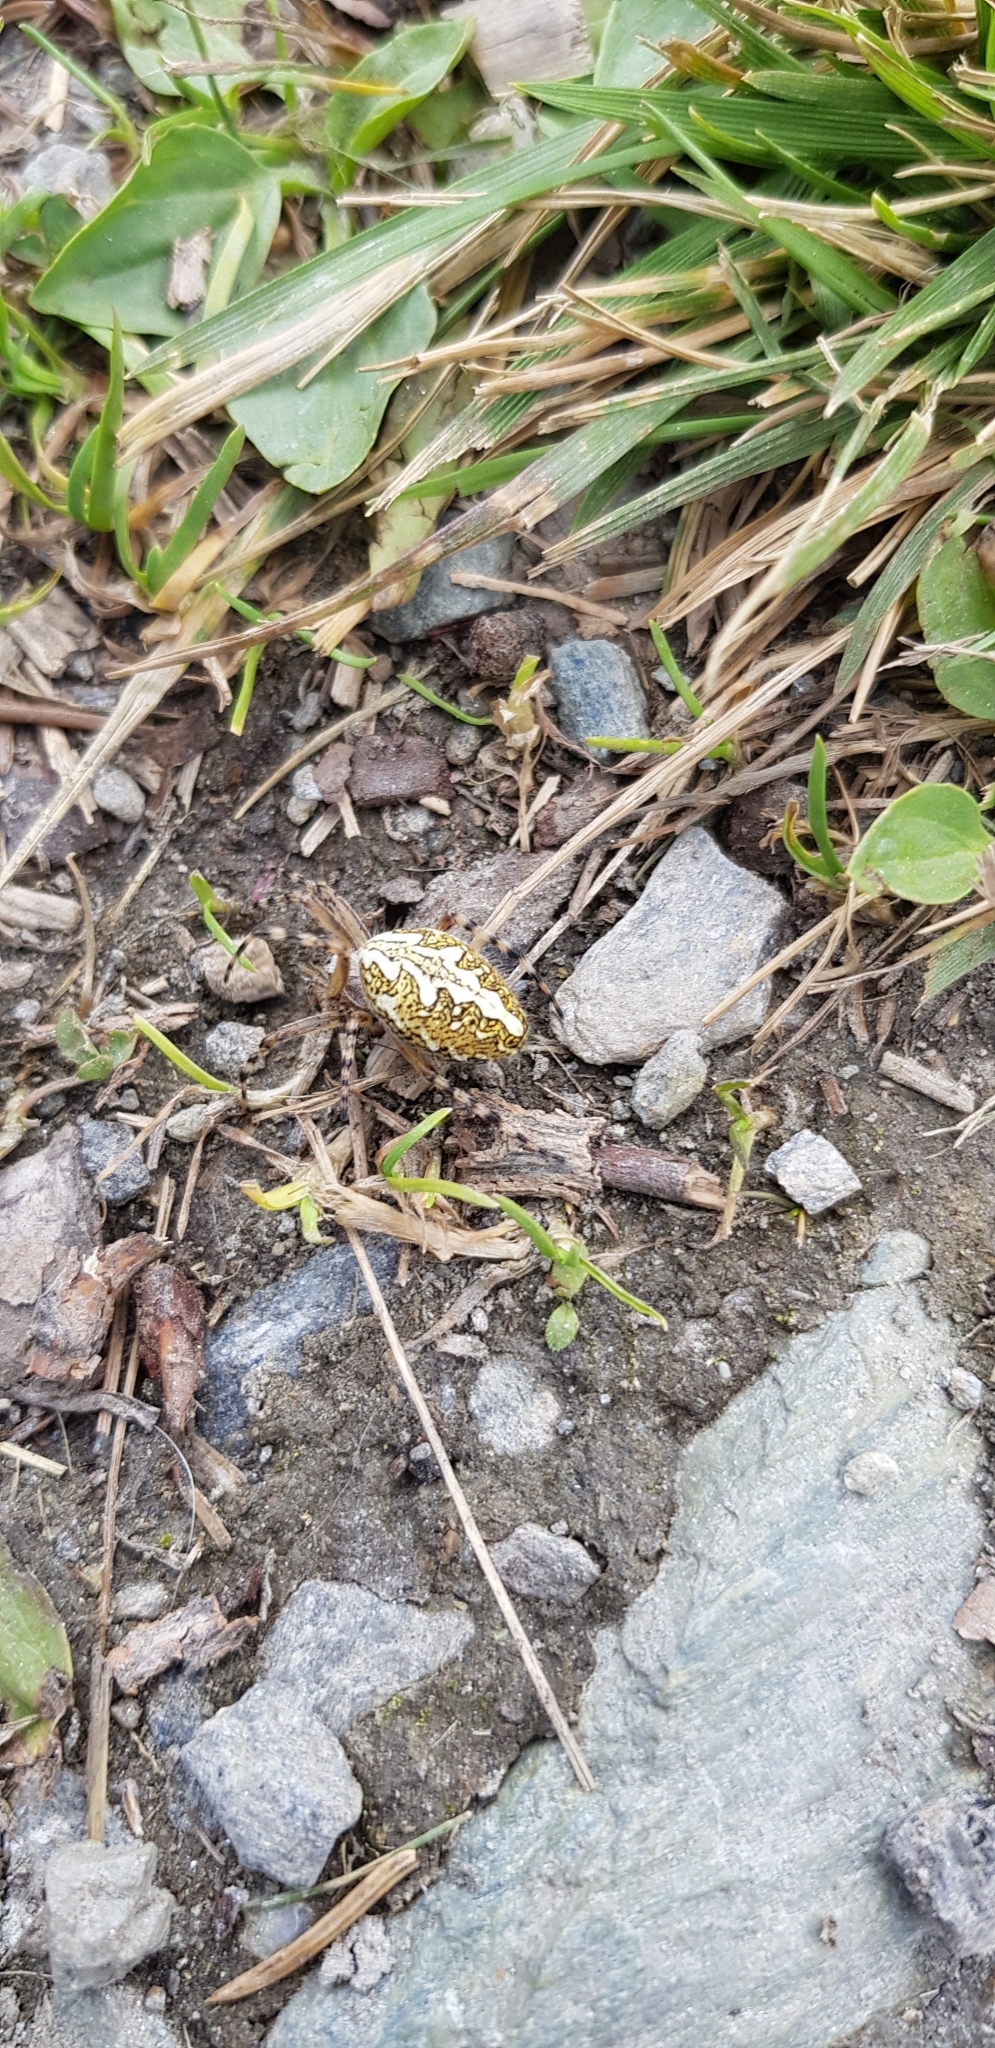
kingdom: Animalia
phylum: Arthropoda
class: Arachnida
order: Araneae
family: Araneidae
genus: Aculepeira
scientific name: Aculepeira ceropegia
